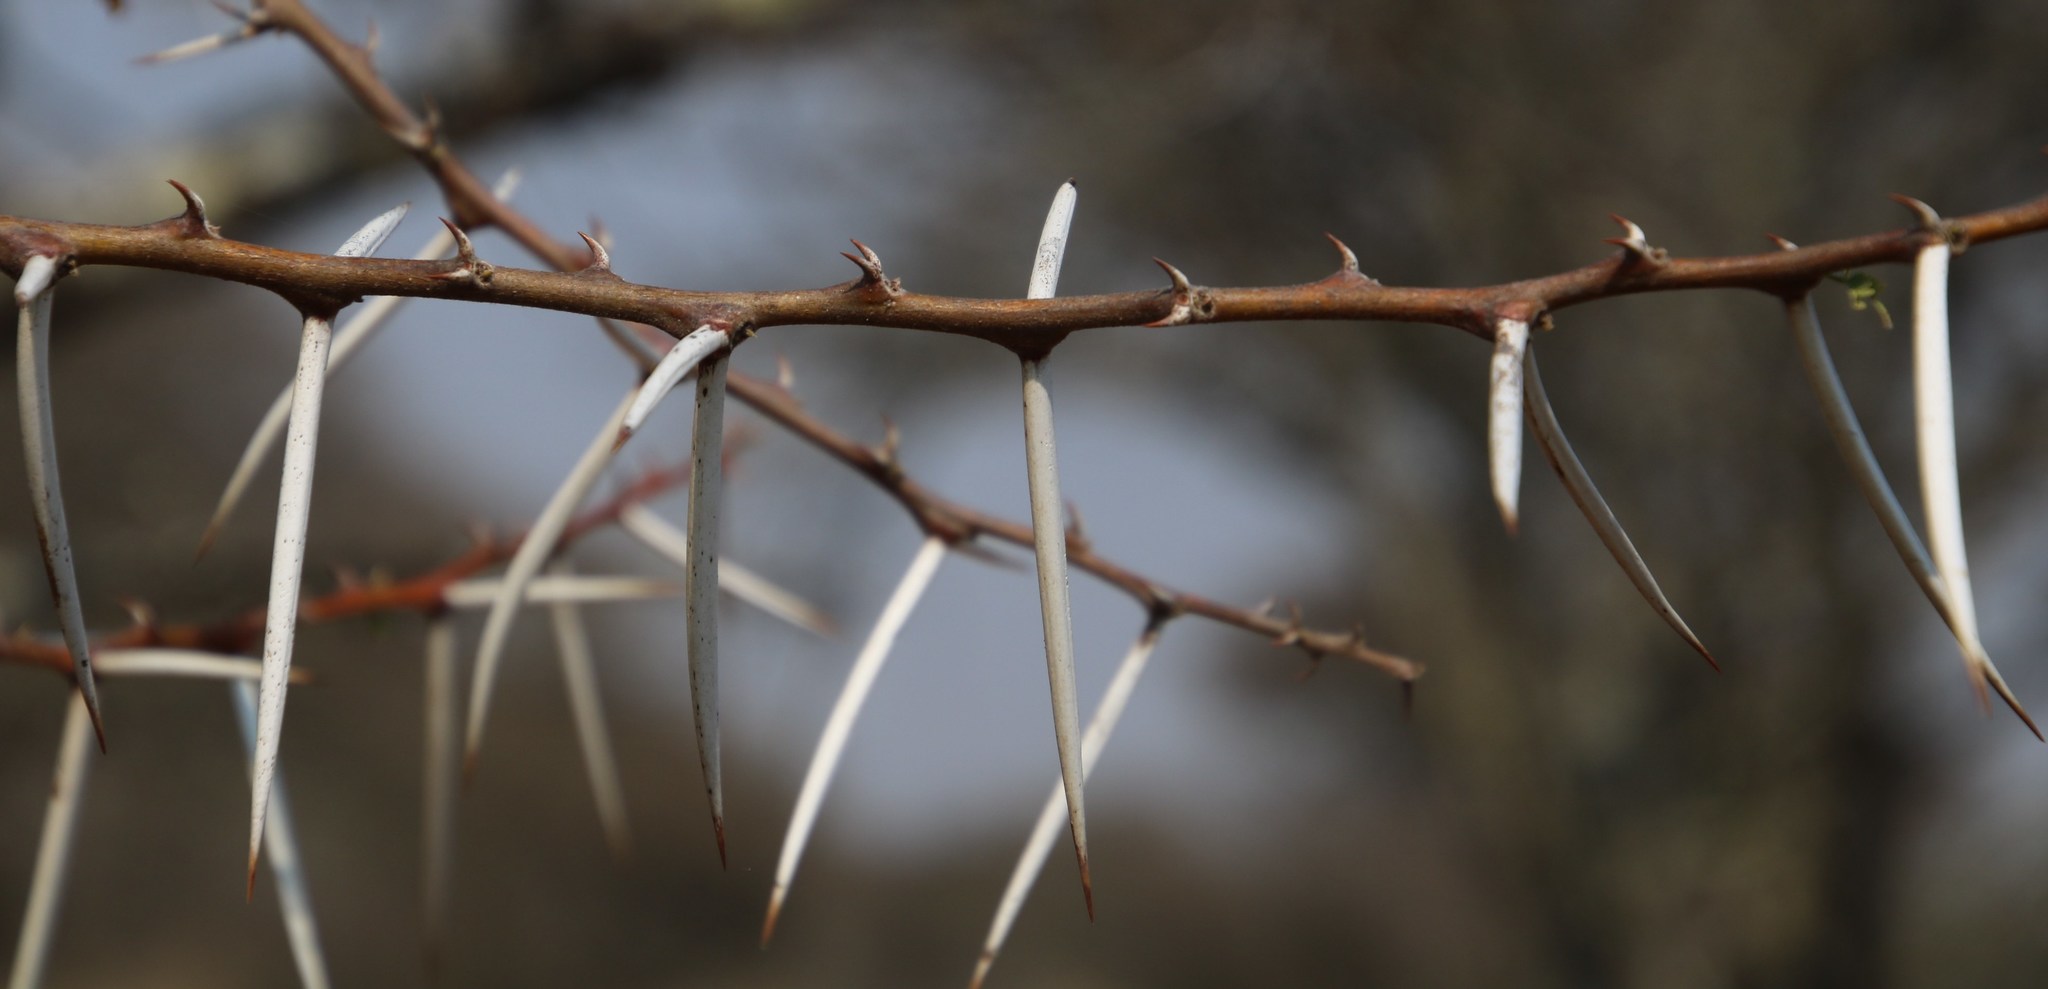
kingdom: Plantae
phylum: Tracheophyta
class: Magnoliopsida
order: Fabales
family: Fabaceae
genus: Vachellia
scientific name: Vachellia tortilis
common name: Umbrella thorn acacia
